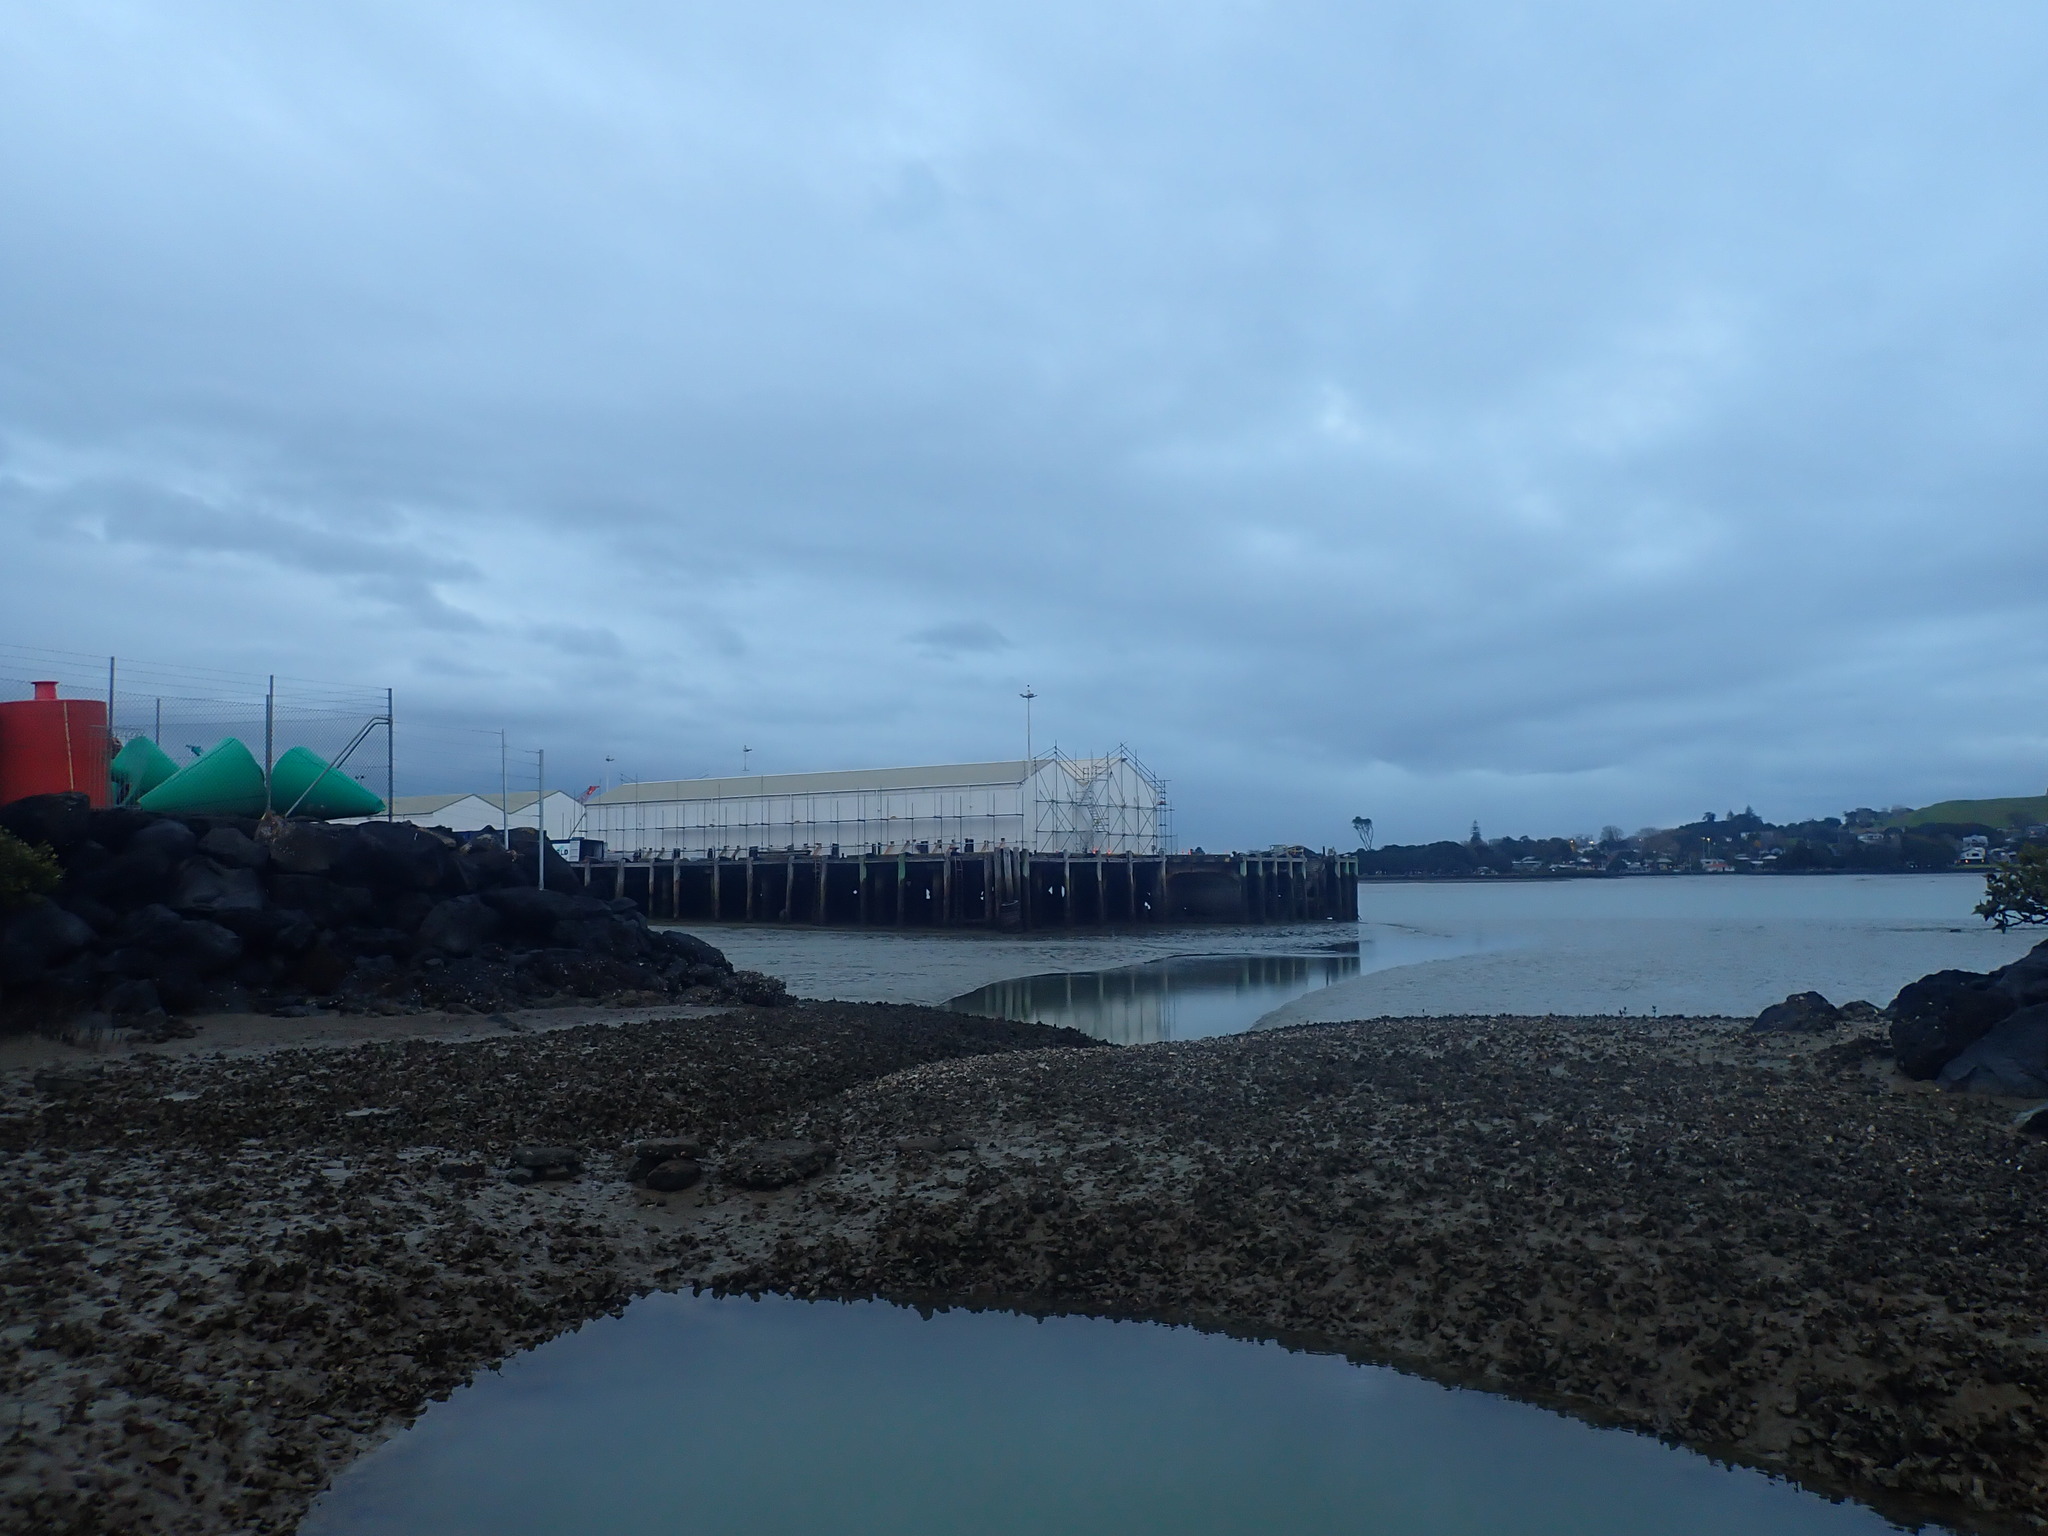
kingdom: Animalia
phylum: Mollusca
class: Bivalvia
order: Ostreida
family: Ostreidae
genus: Magallana
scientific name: Magallana gigas
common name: Pacific oyster
